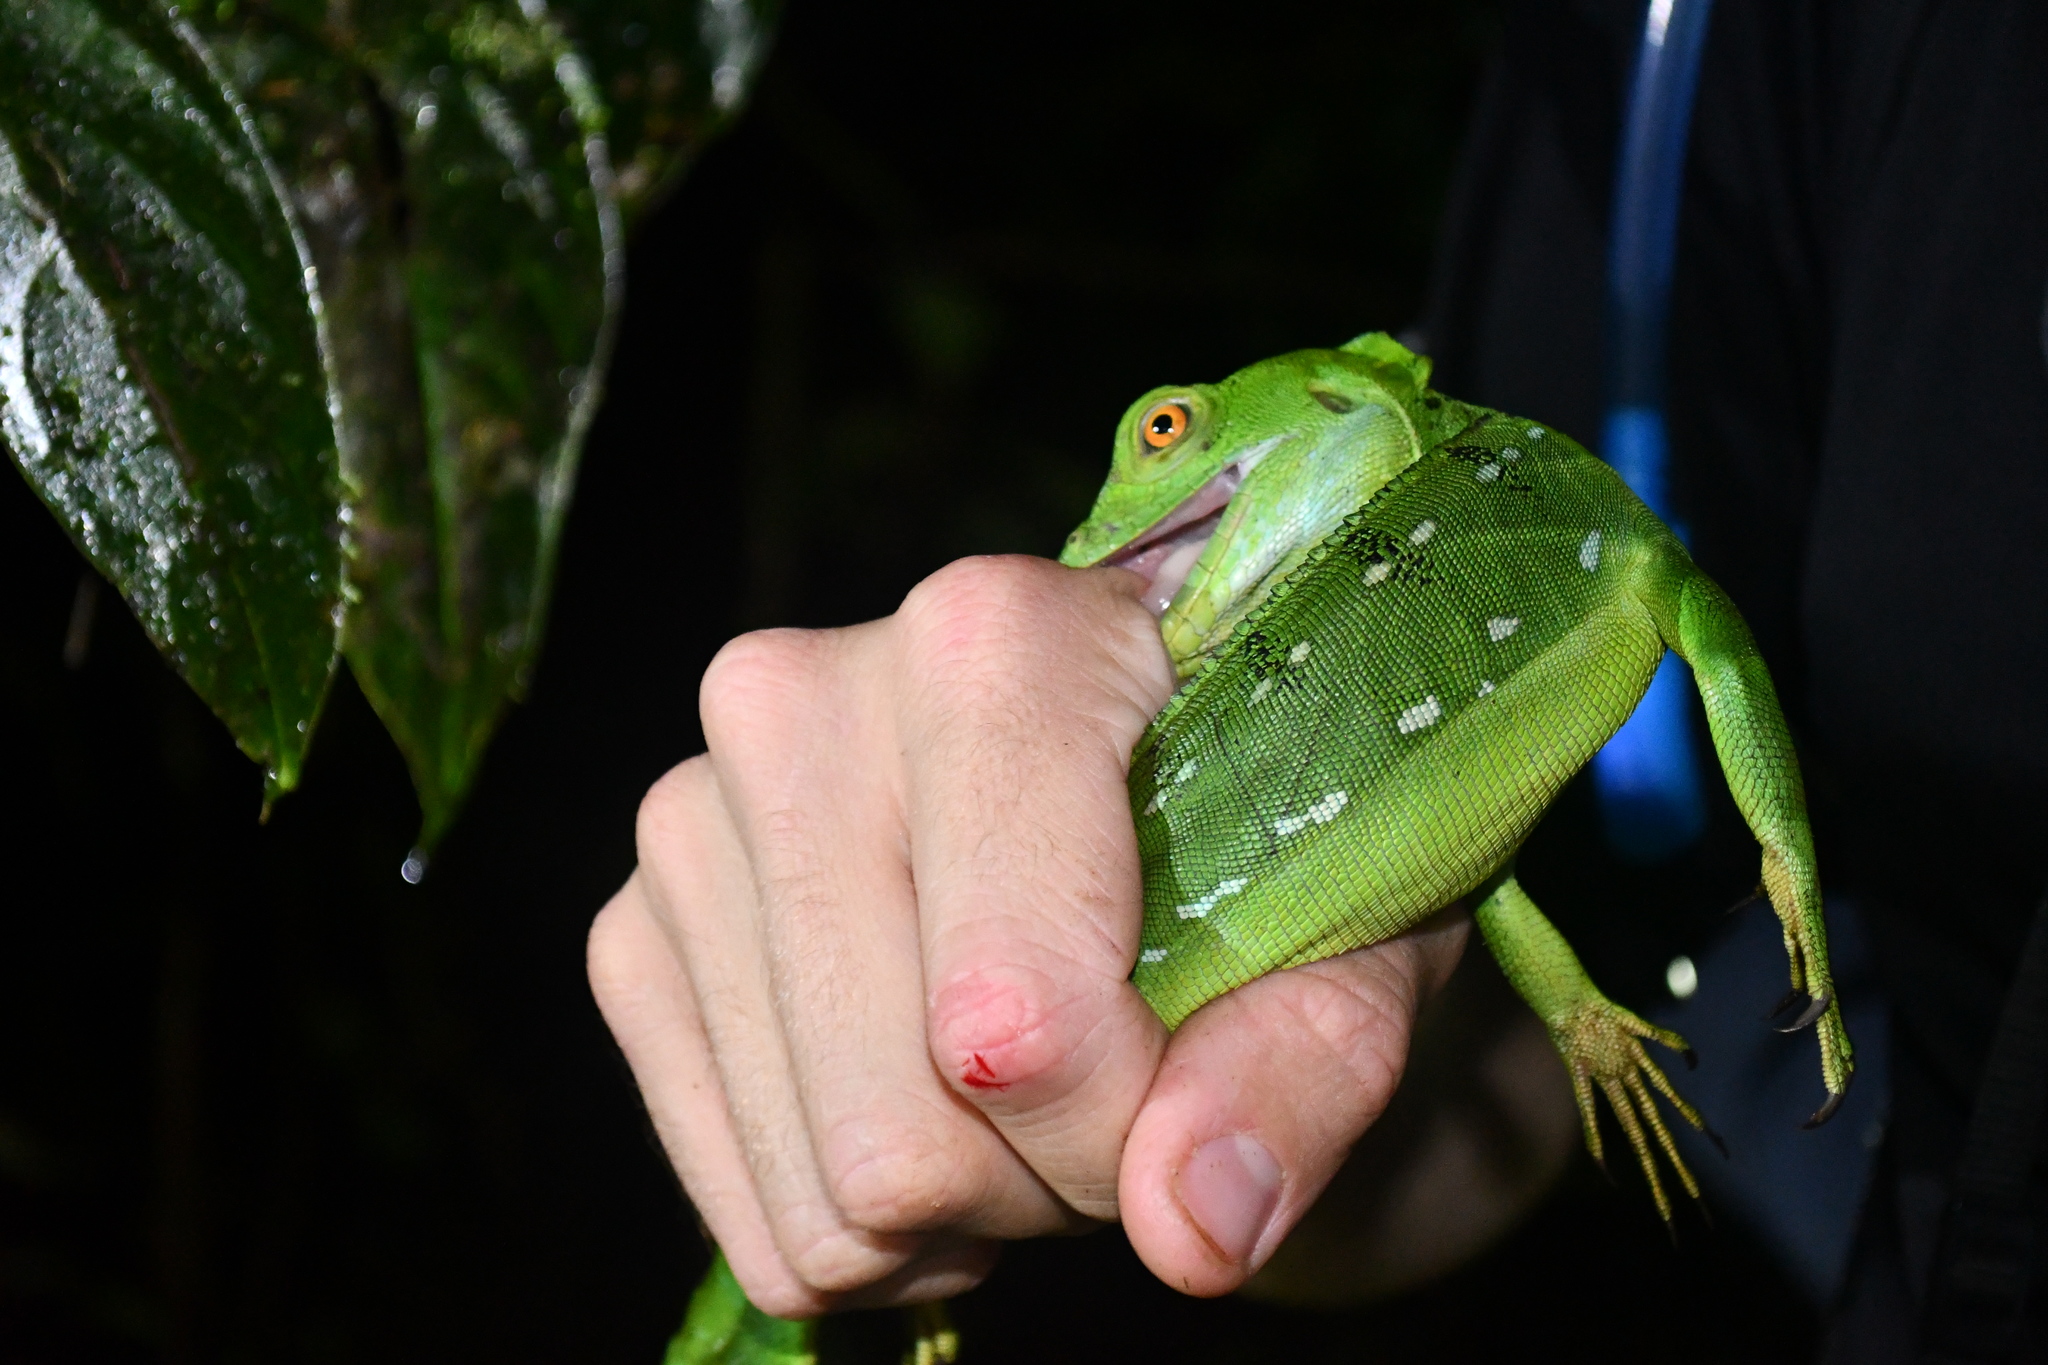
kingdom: Animalia
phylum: Chordata
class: Squamata
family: Corytophanidae
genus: Basiliscus
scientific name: Basiliscus plumifrons
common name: Green basilisk
